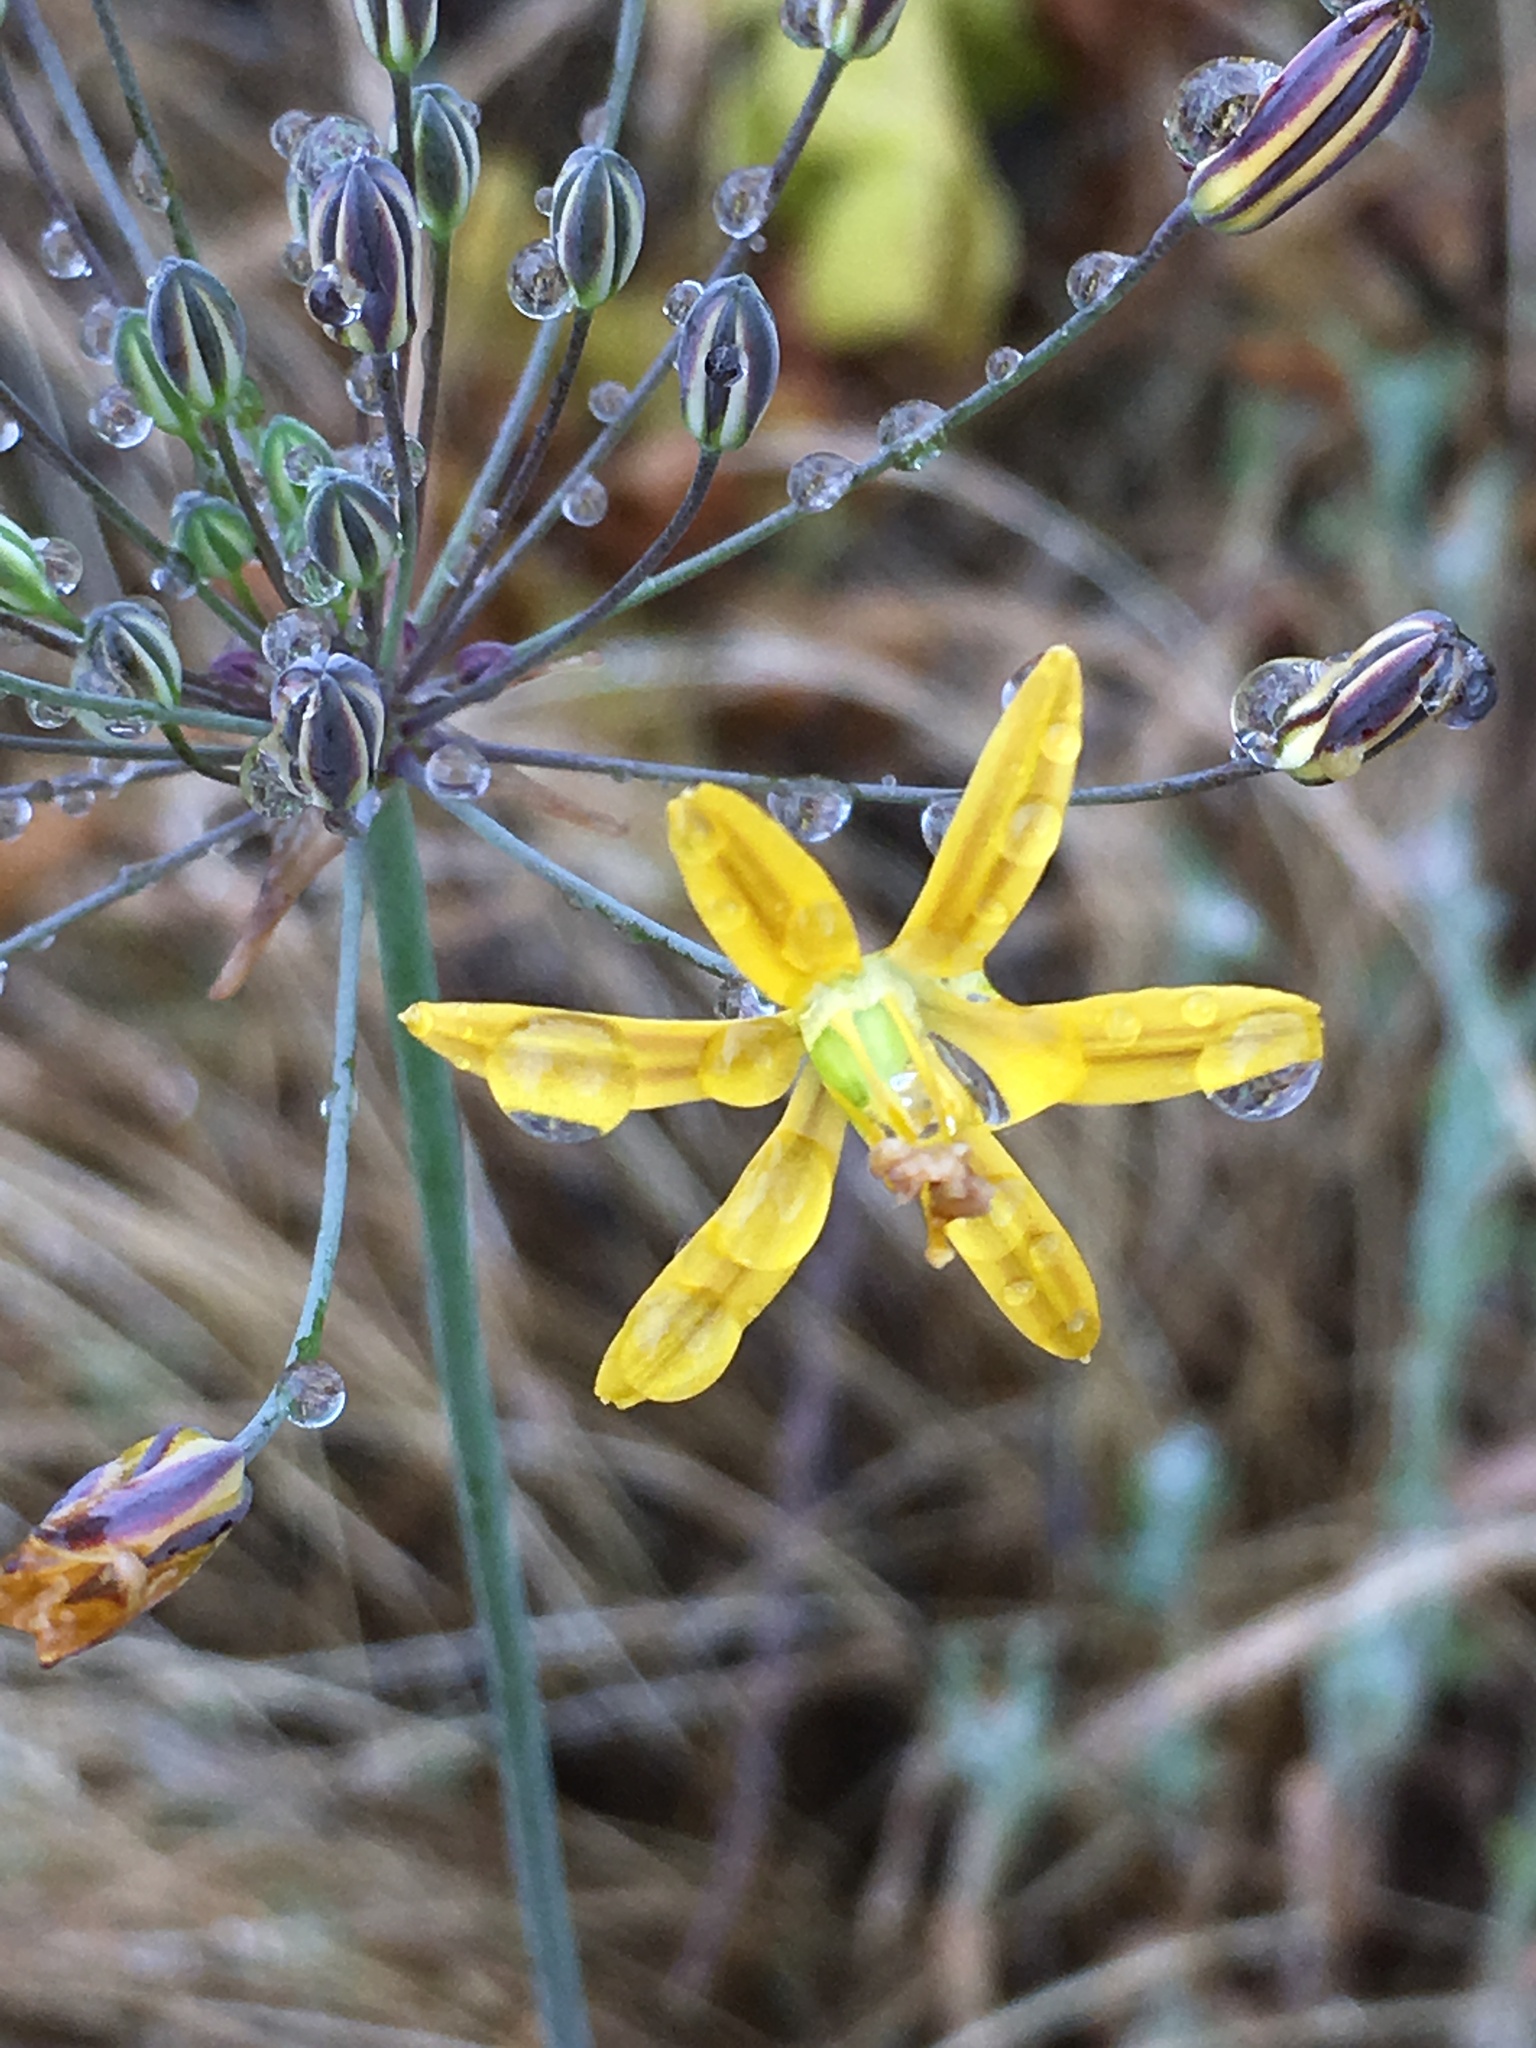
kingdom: Plantae
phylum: Tracheophyta
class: Liliopsida
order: Asparagales
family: Asparagaceae
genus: Bloomeria
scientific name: Bloomeria crocea
